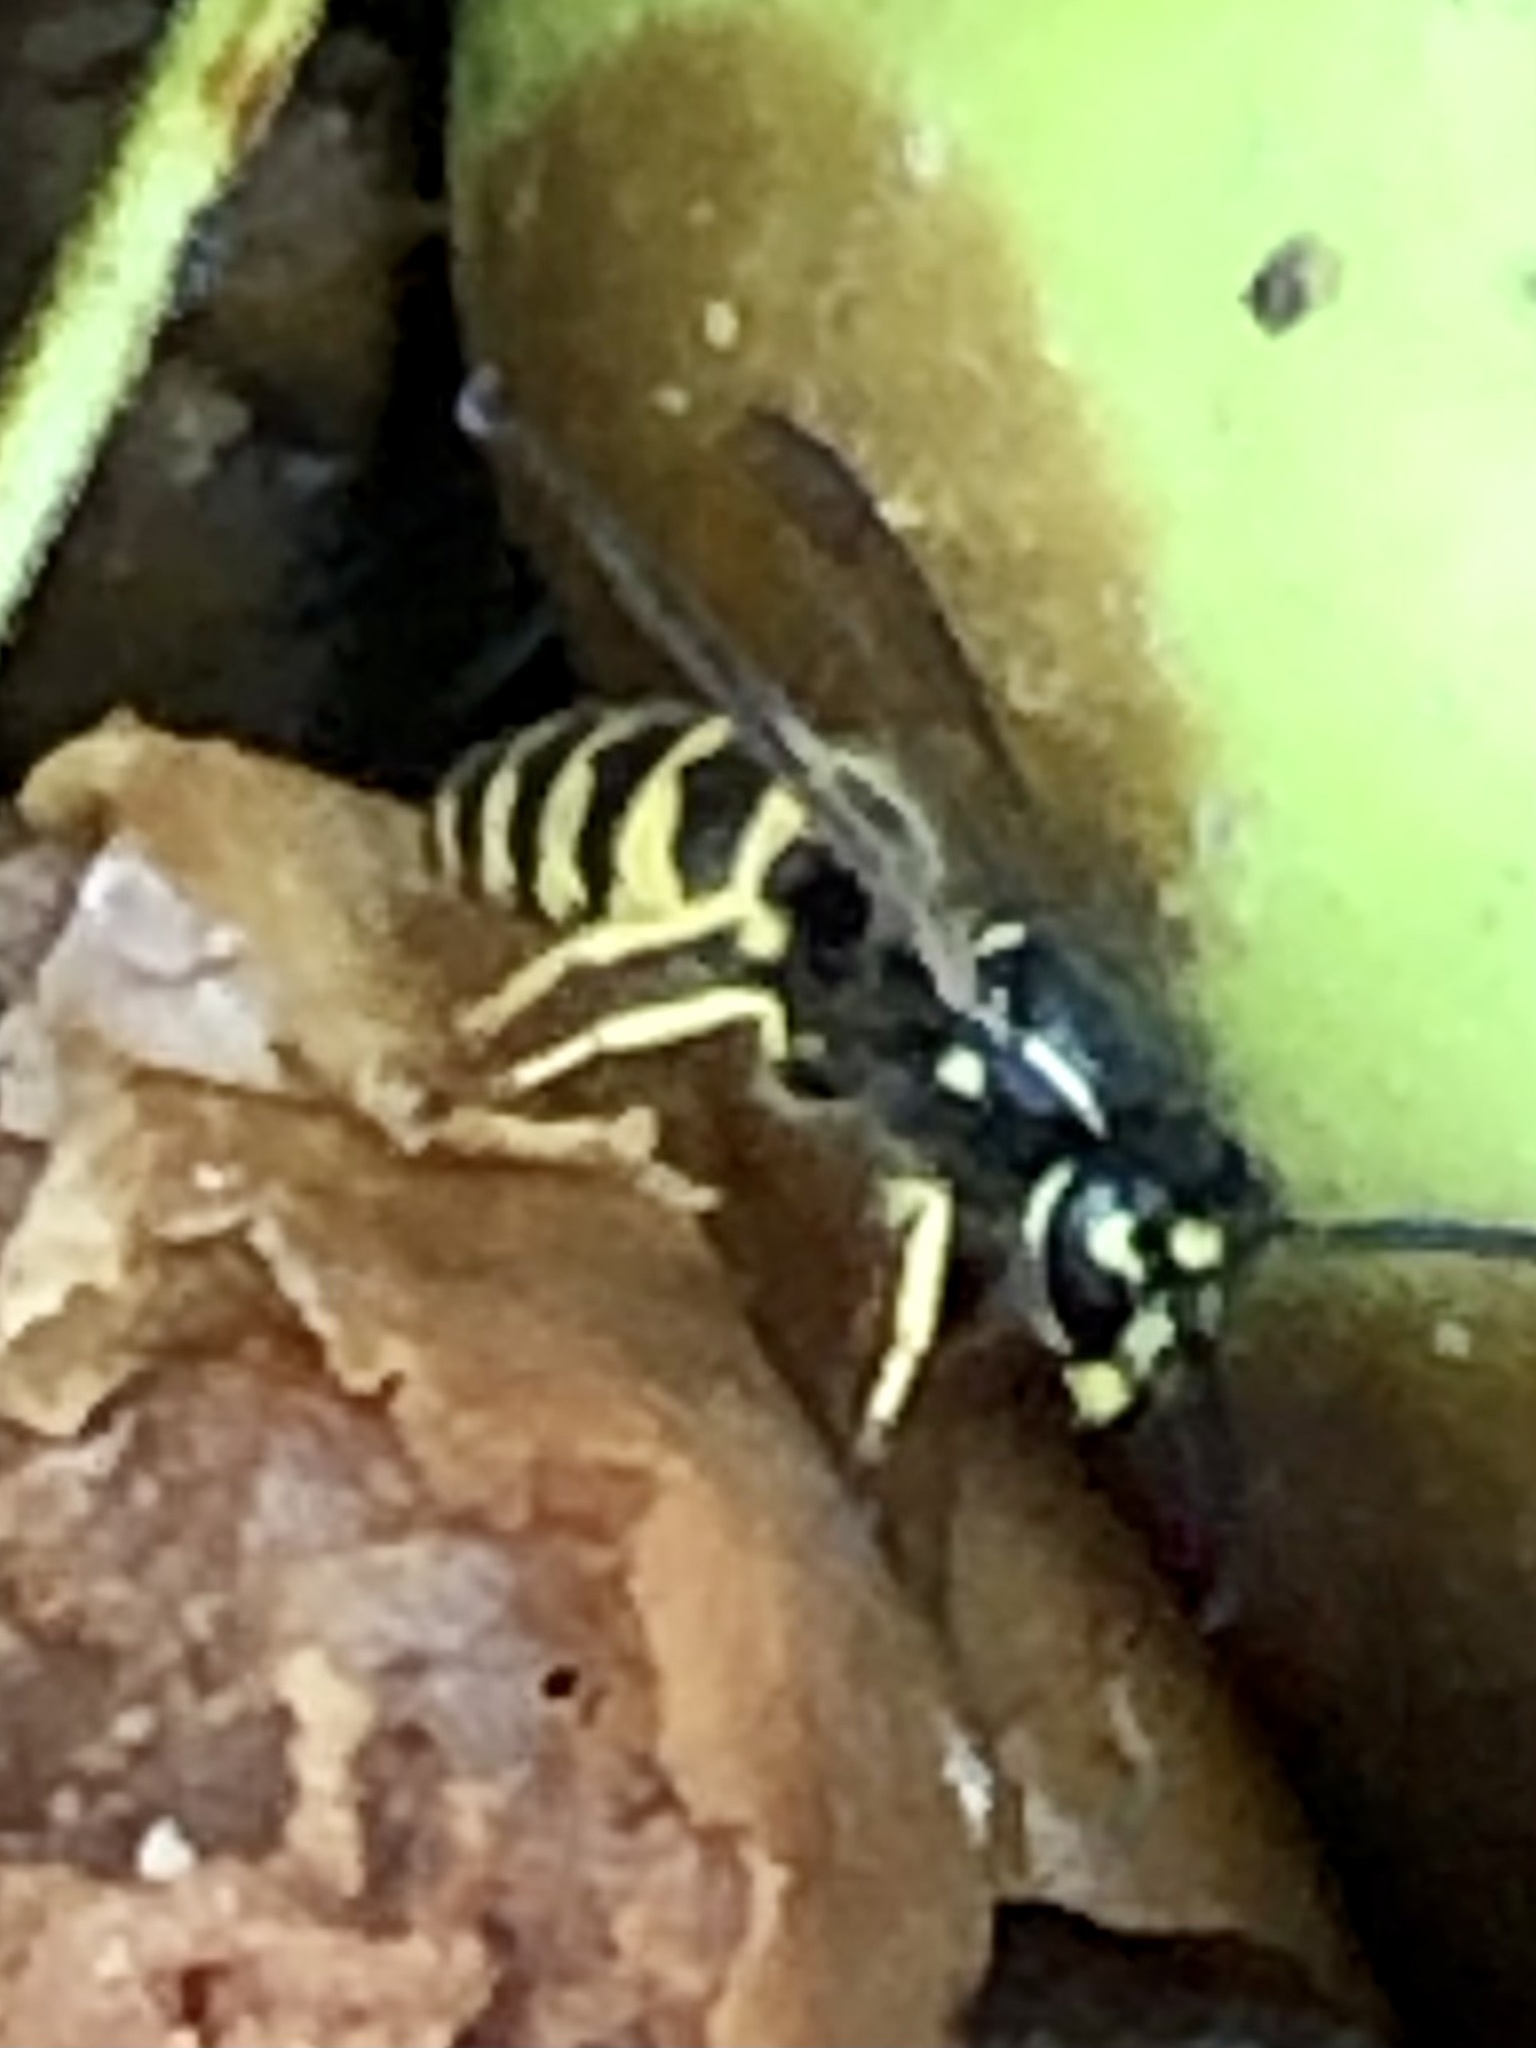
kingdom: Animalia
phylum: Arthropoda
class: Insecta
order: Hymenoptera
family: Vespidae
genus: Vespula
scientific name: Vespula alascensis
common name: Alaska yellowjacket
